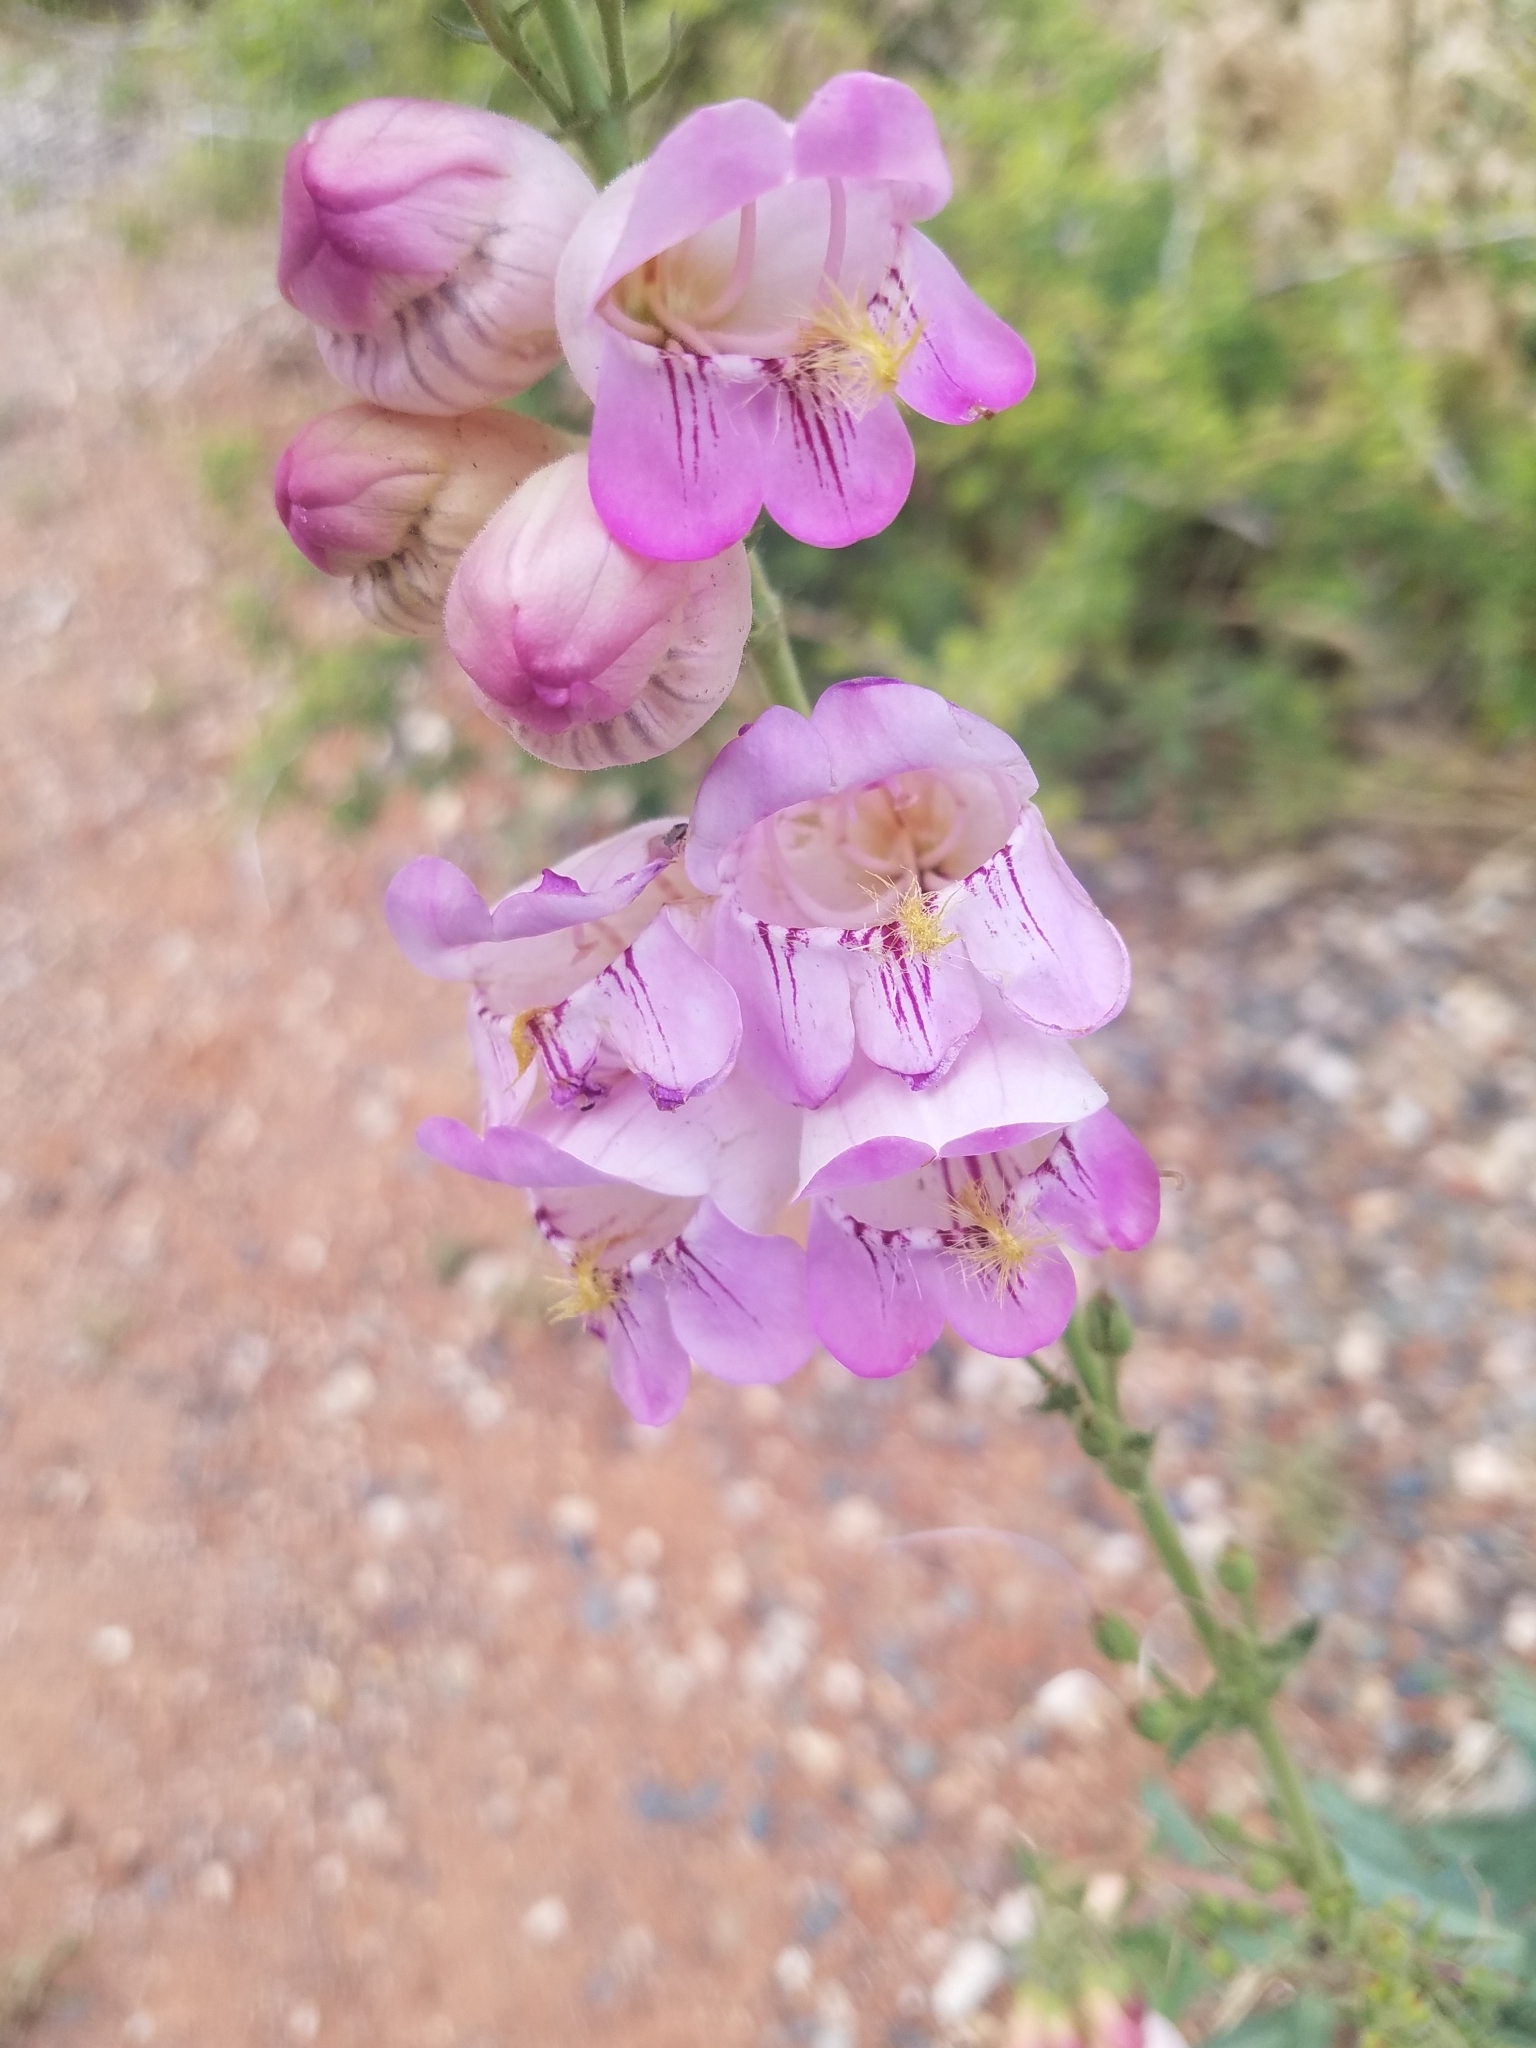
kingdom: Plantae
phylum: Tracheophyta
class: Magnoliopsida
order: Lamiales
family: Plantaginaceae
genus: Penstemon
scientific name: Penstemon palmeri
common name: Palmer penstemon
